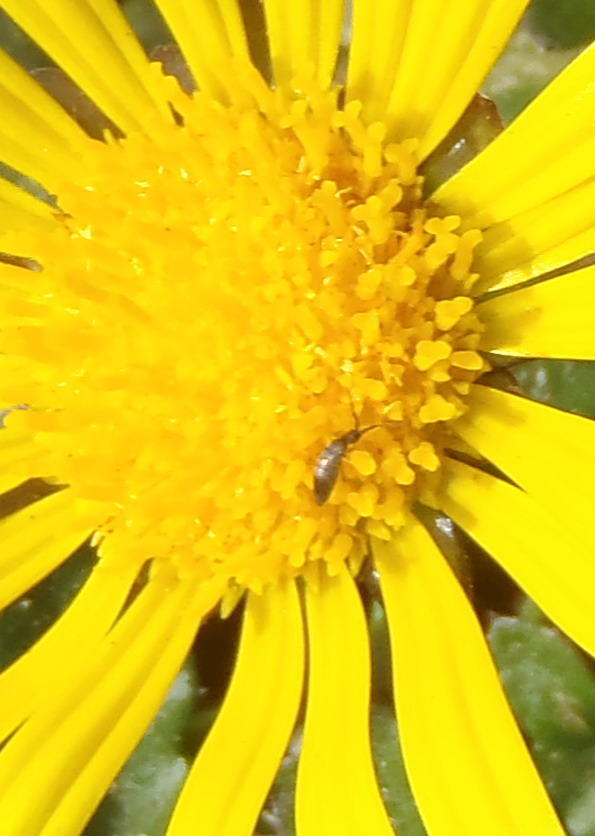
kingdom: Animalia
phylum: Arthropoda
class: Collembola
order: Entomobryomorpha
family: Entomobryidae
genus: Seira
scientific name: Seira
